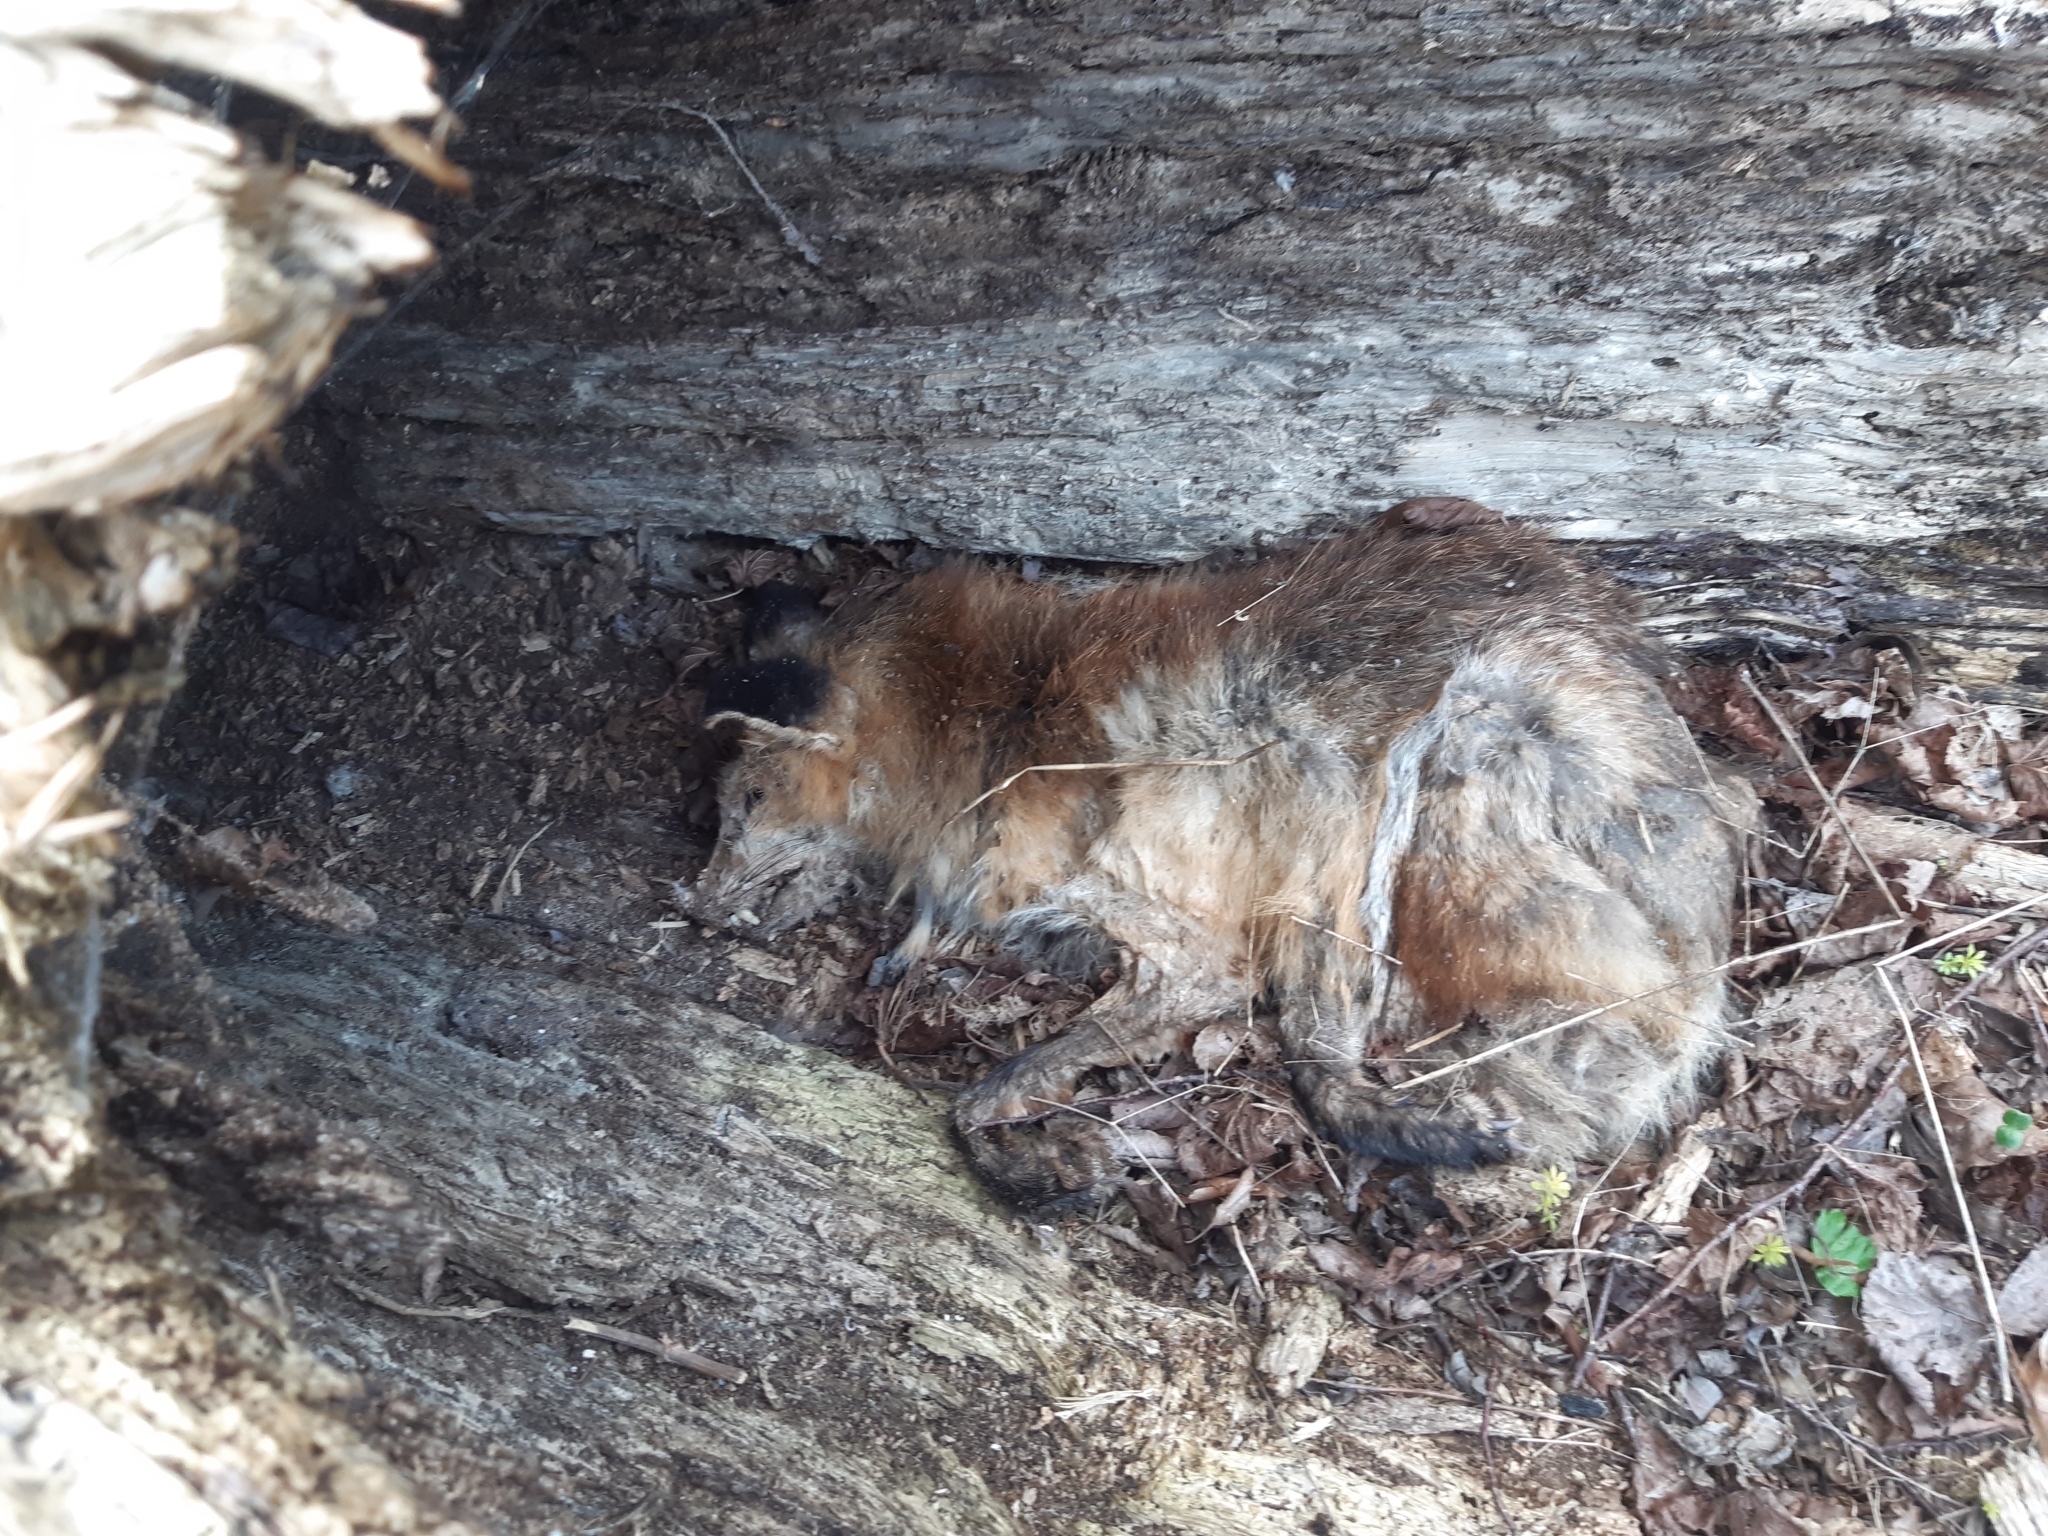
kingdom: Animalia
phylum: Chordata
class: Mammalia
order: Carnivora
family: Canidae
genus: Vulpes
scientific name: Vulpes vulpes
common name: Red fox
